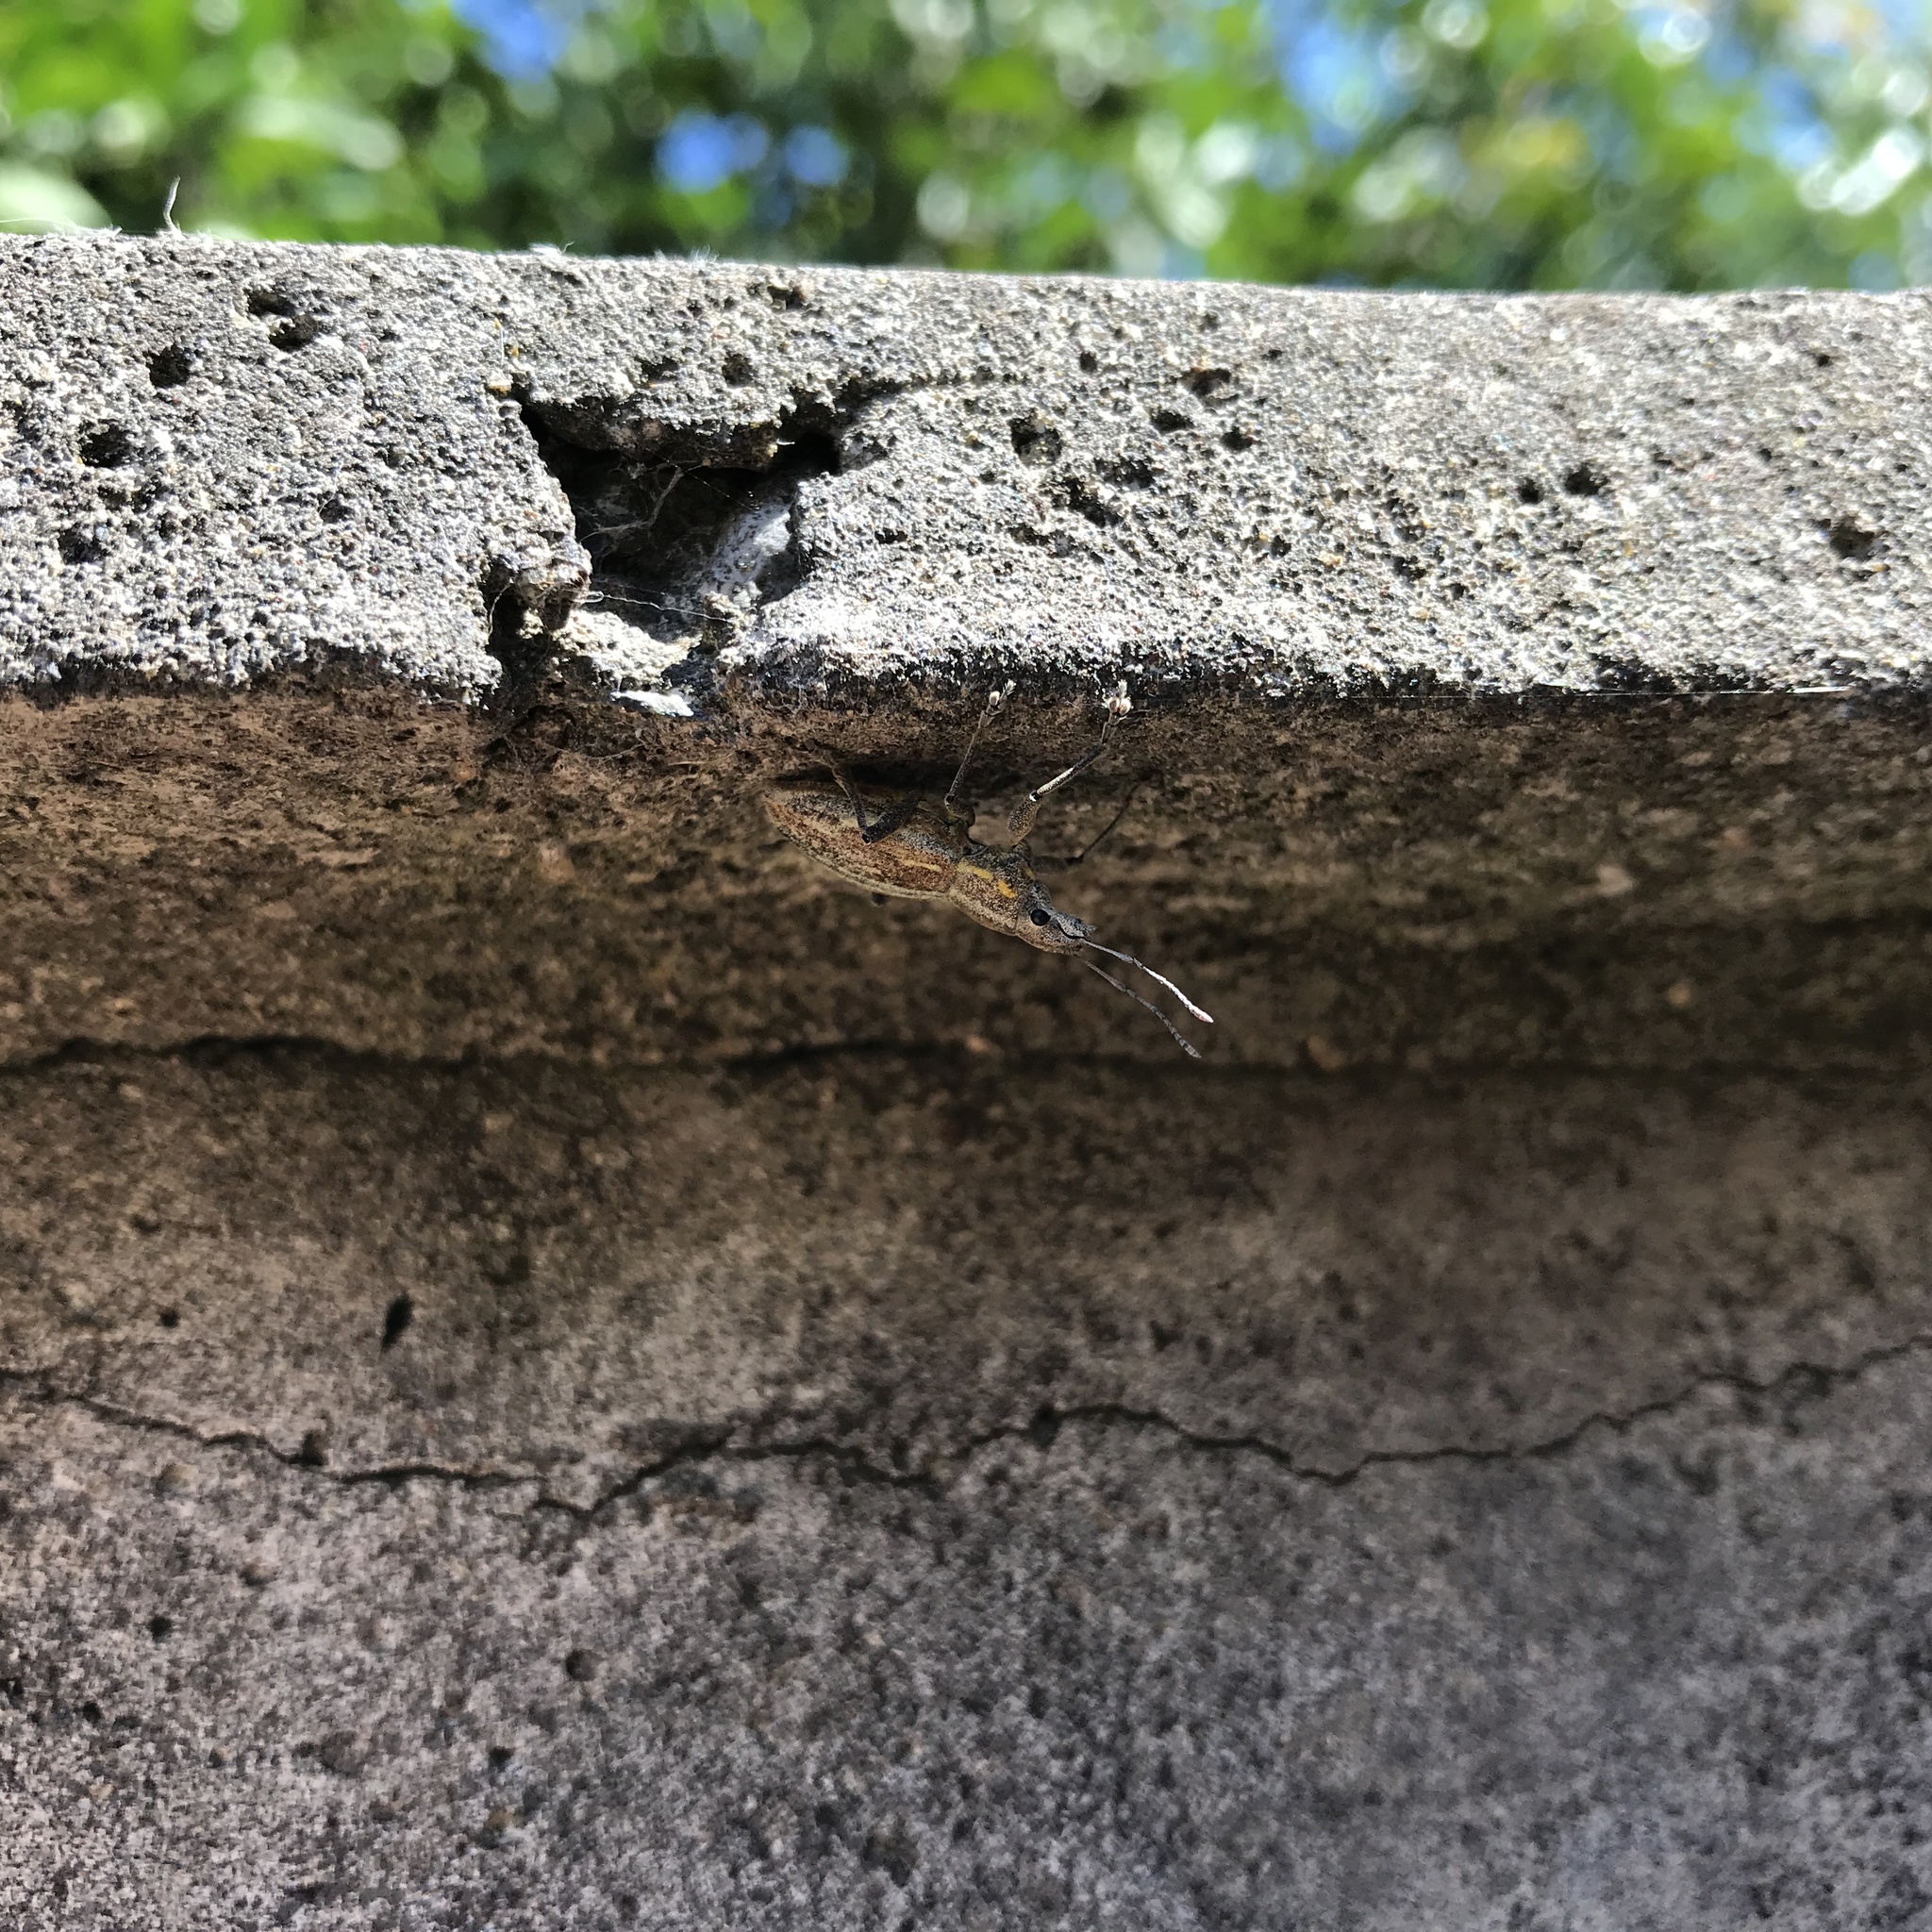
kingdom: Animalia
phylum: Arthropoda
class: Insecta
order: Coleoptera
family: Curculionidae
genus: Naupactus
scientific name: Naupactus xanthographus
